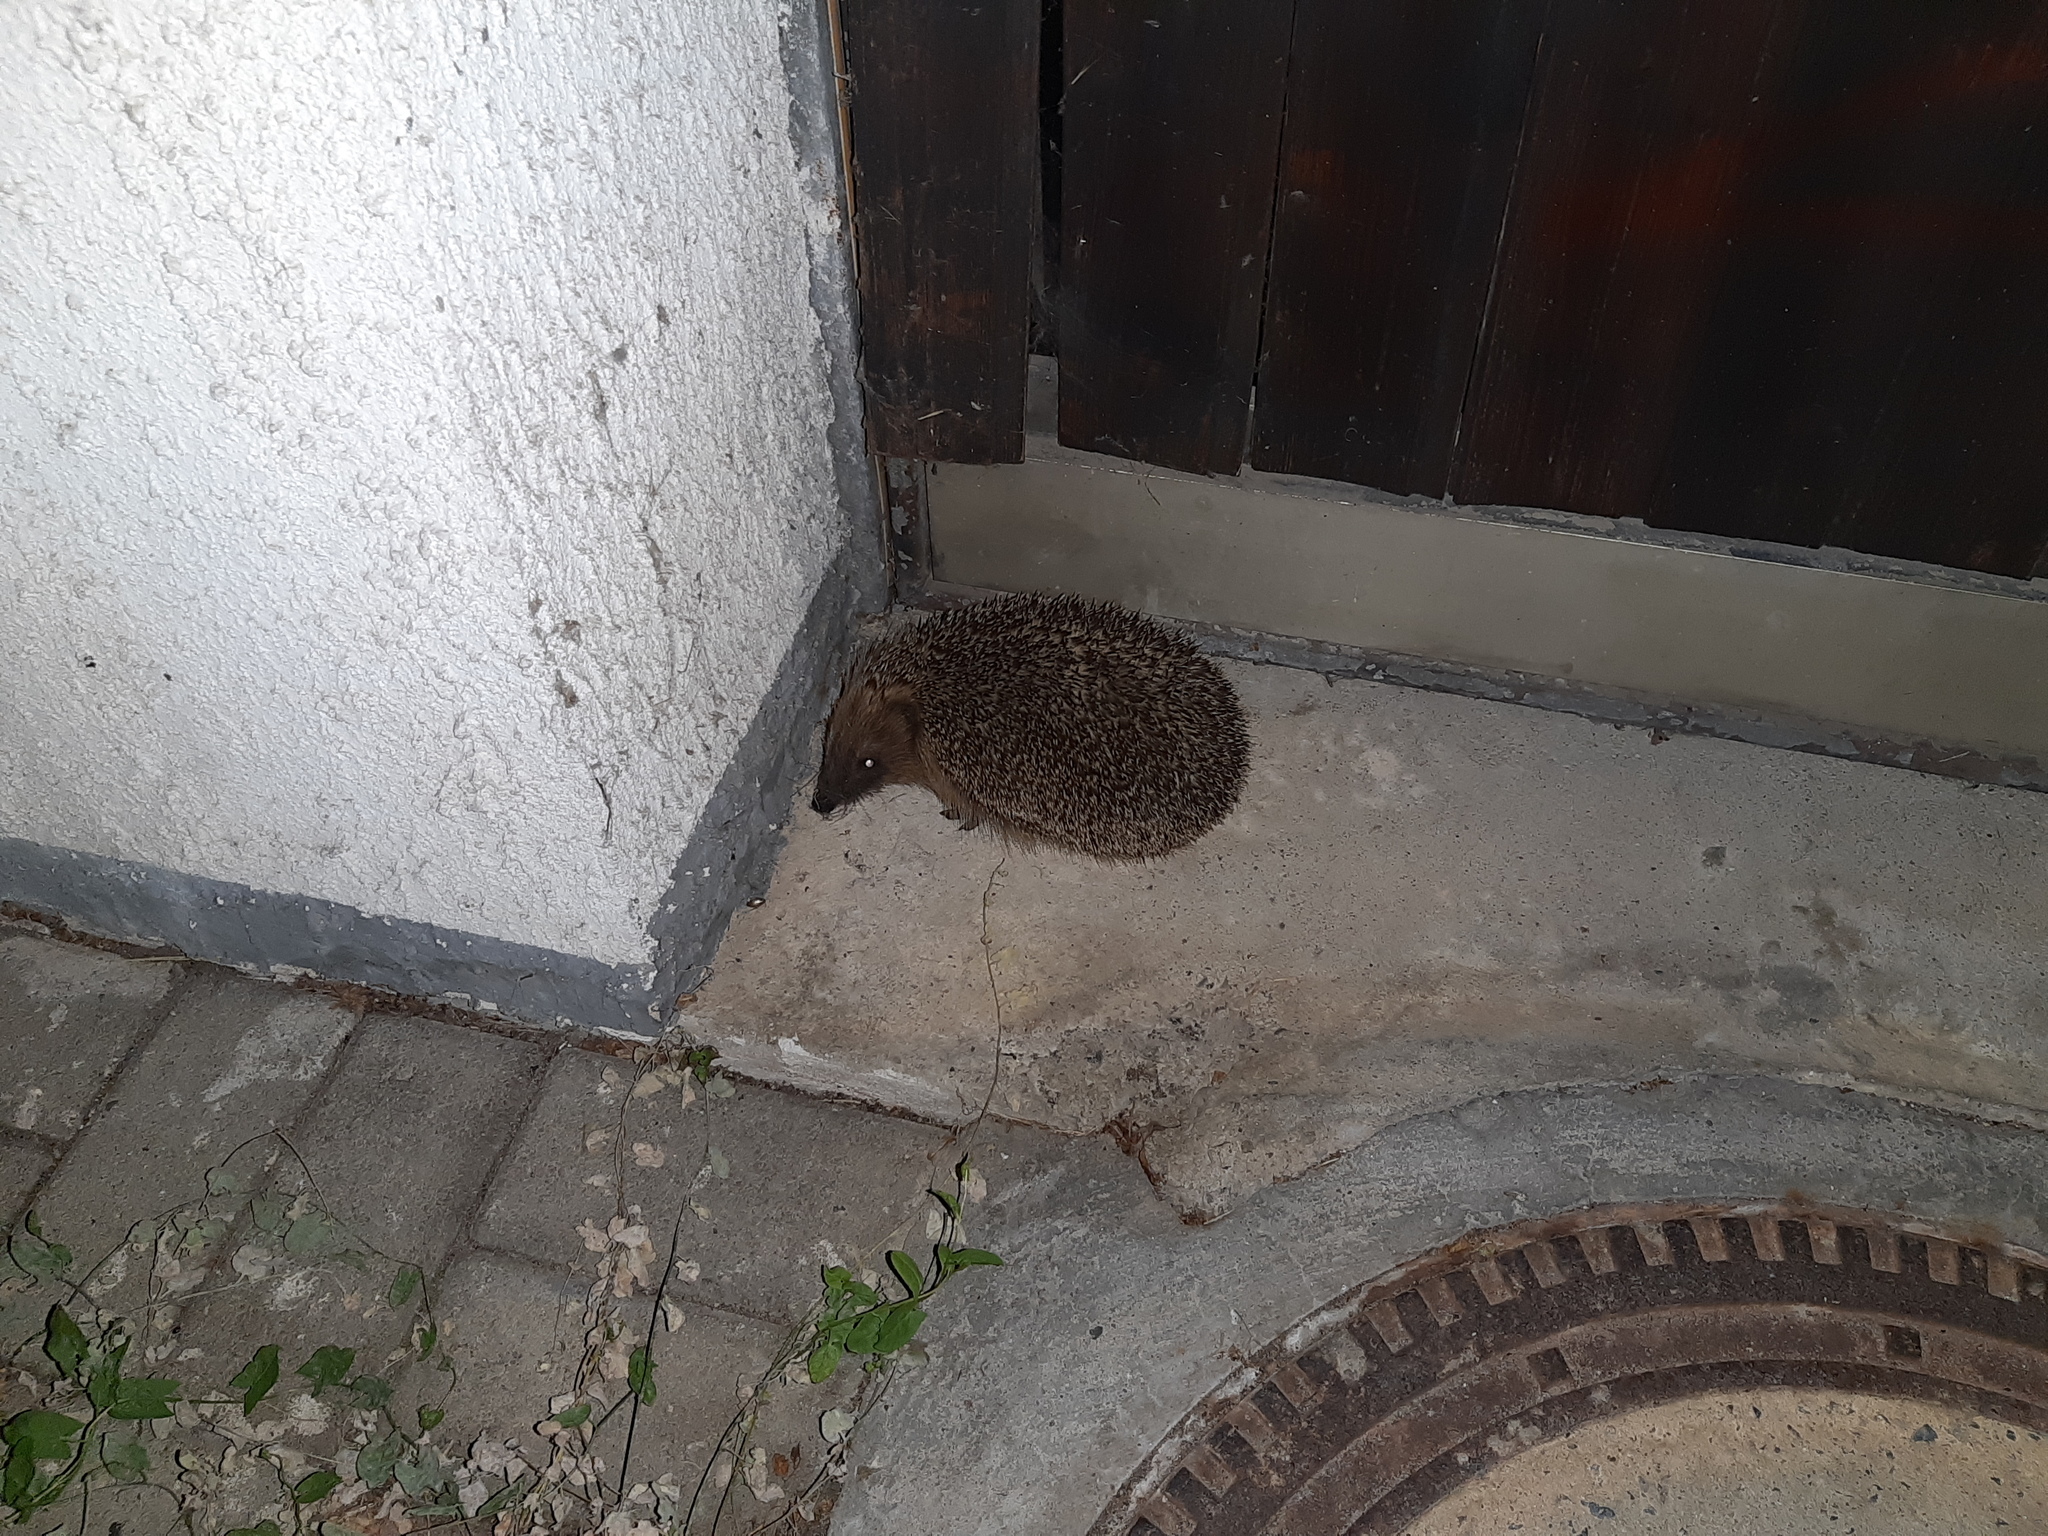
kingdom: Animalia
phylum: Chordata
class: Mammalia
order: Erinaceomorpha
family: Erinaceidae
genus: Erinaceus
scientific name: Erinaceus europaeus
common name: West european hedgehog
